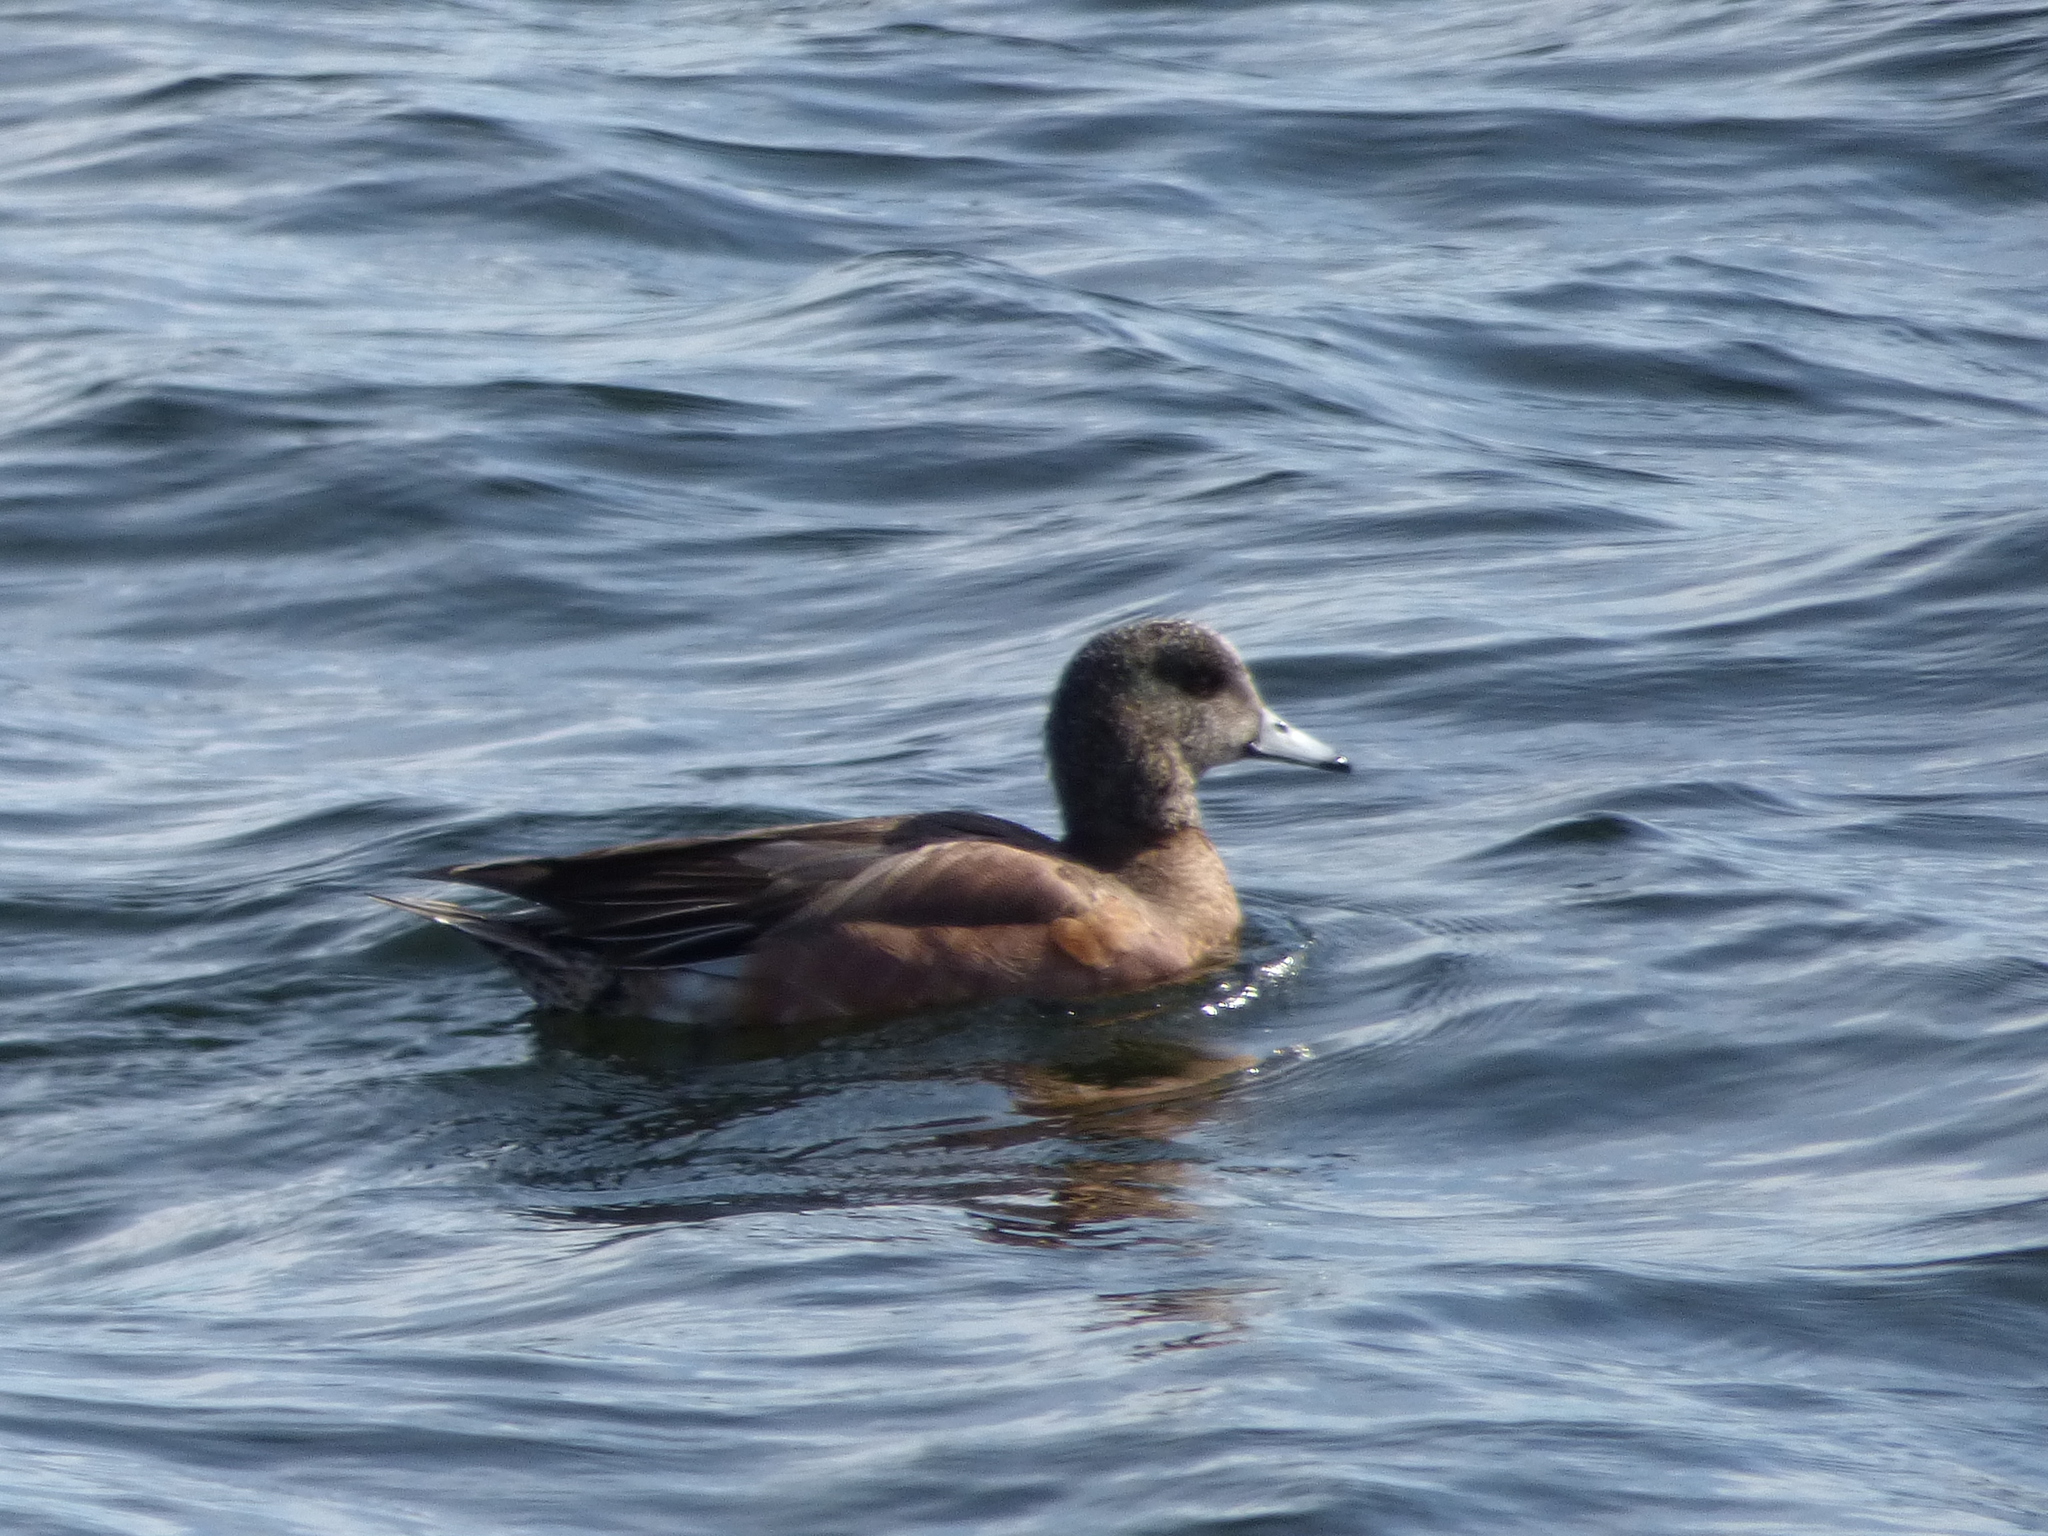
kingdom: Animalia
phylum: Chordata
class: Aves
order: Anseriformes
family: Anatidae
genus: Mareca
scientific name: Mareca americana
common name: American wigeon
